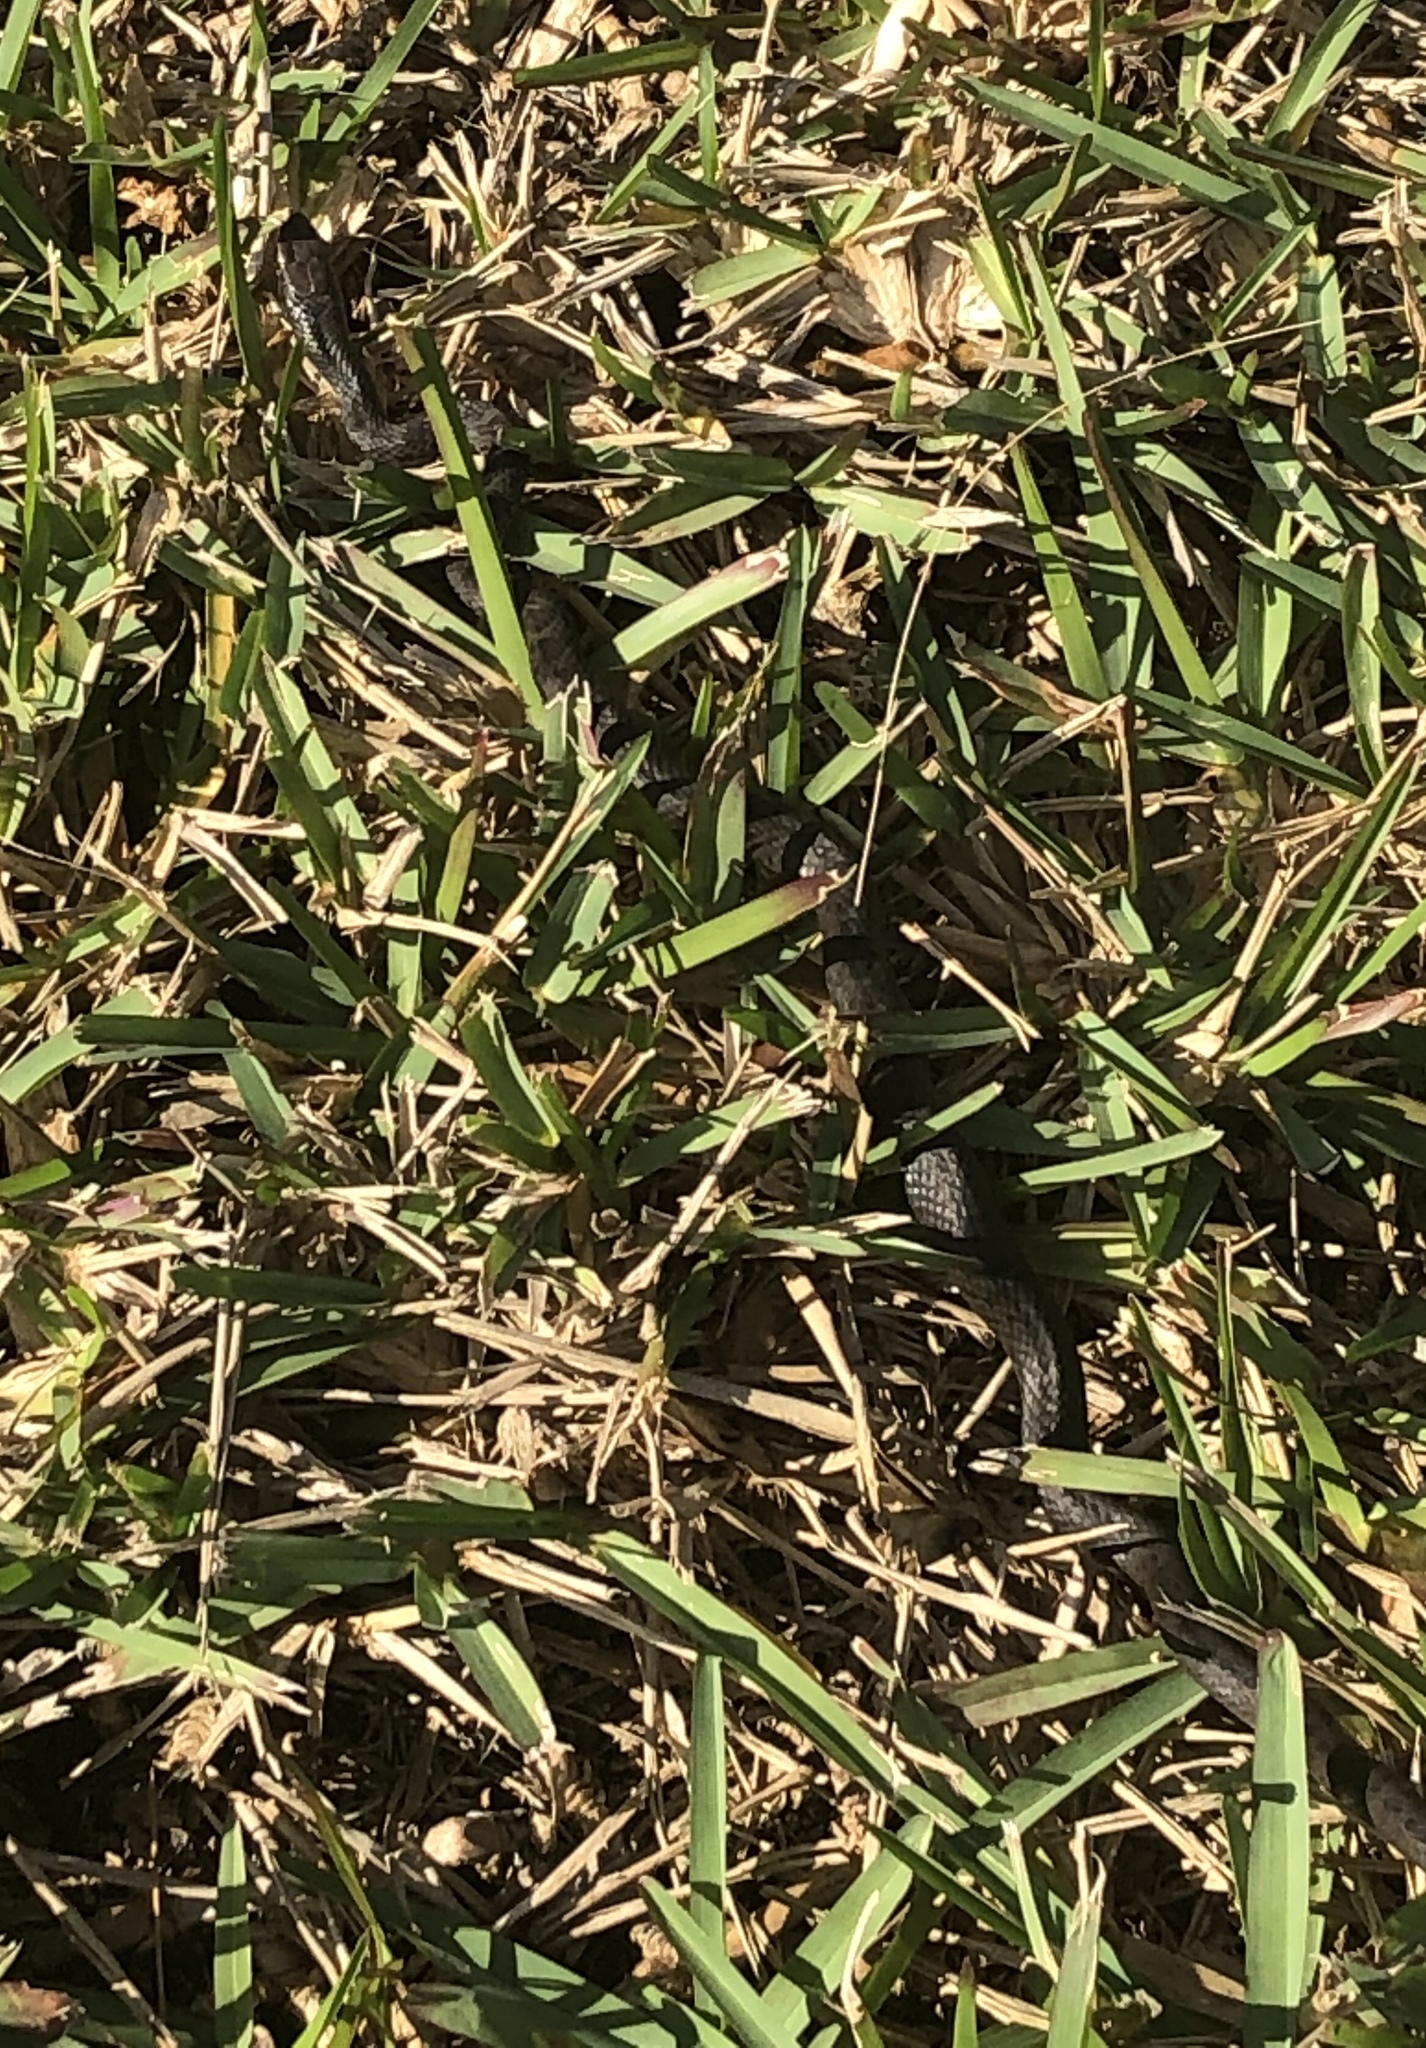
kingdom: Animalia
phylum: Chordata
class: Squamata
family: Colubridae
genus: Coluber
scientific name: Coluber constrictor
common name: Eastern racer
